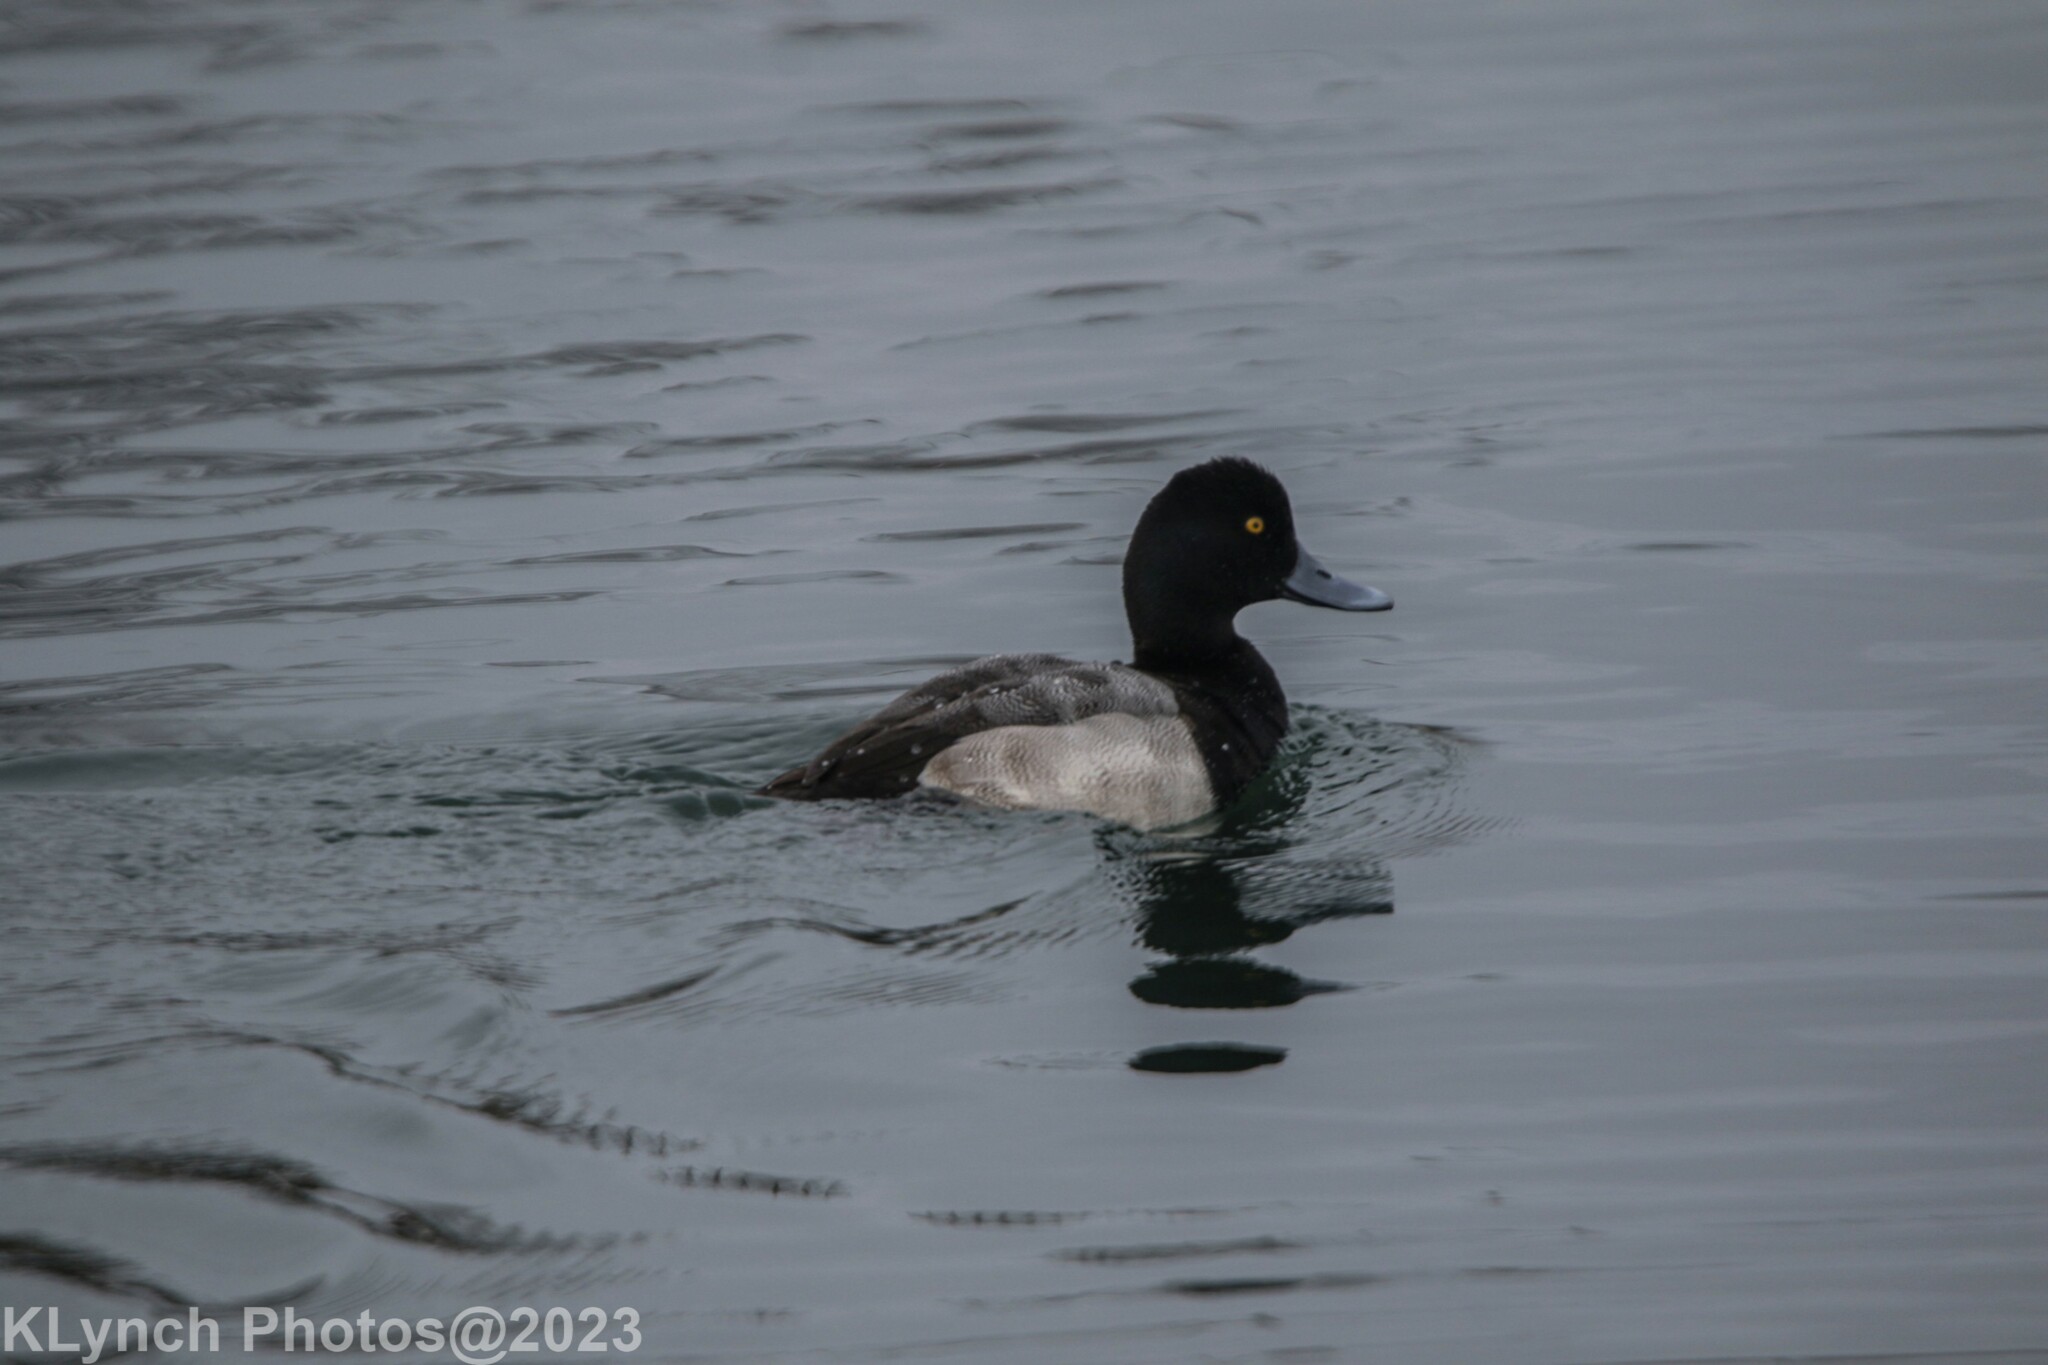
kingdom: Animalia
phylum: Chordata
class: Aves
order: Anseriformes
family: Anatidae
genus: Aythya
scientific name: Aythya affinis
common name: Lesser scaup
